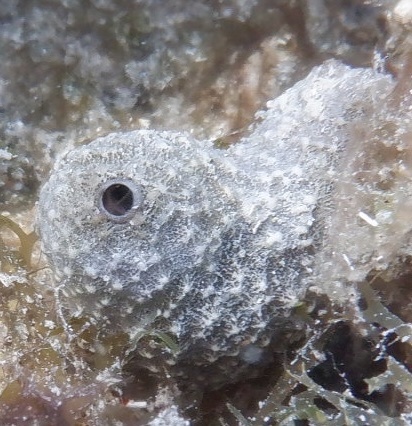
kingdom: Animalia
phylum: Porifera
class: Demospongiae
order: Dictyoceratida
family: Irciniidae
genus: Ircinia
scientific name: Ircinia felix
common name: Stinker sponge
